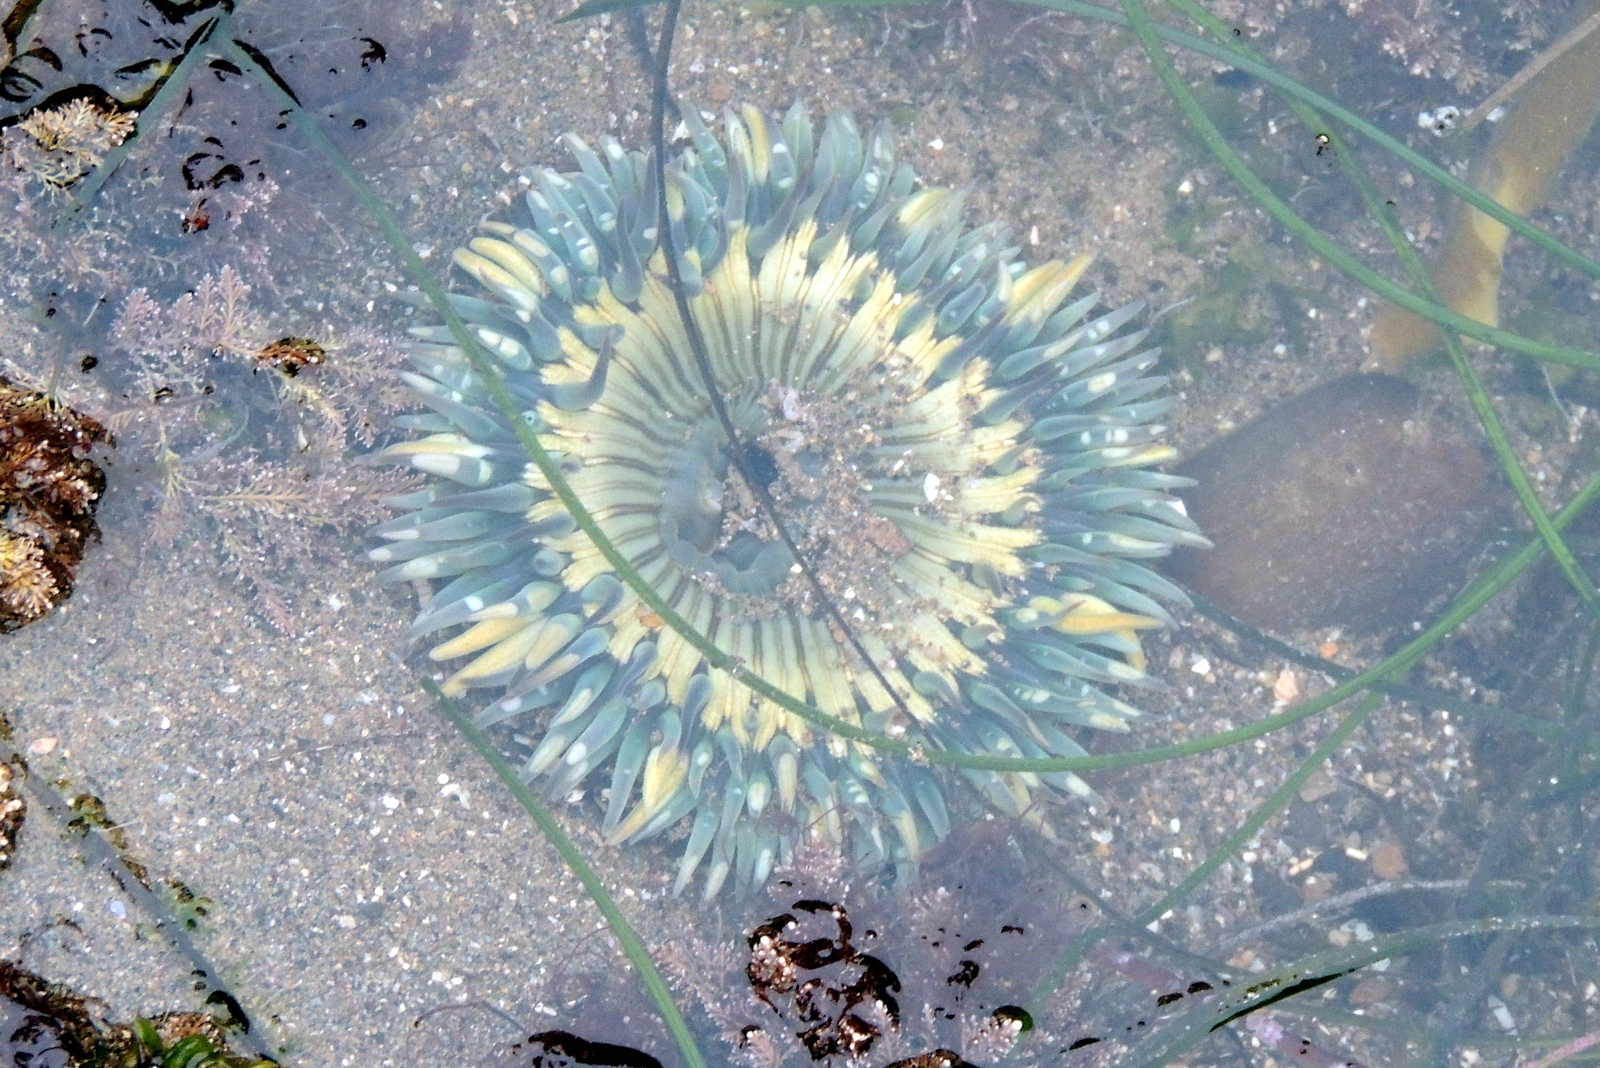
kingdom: Animalia
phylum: Cnidaria
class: Anthozoa
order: Actiniaria
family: Actiniidae
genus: Anthopleura
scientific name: Anthopleura sola
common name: Sun anemone
